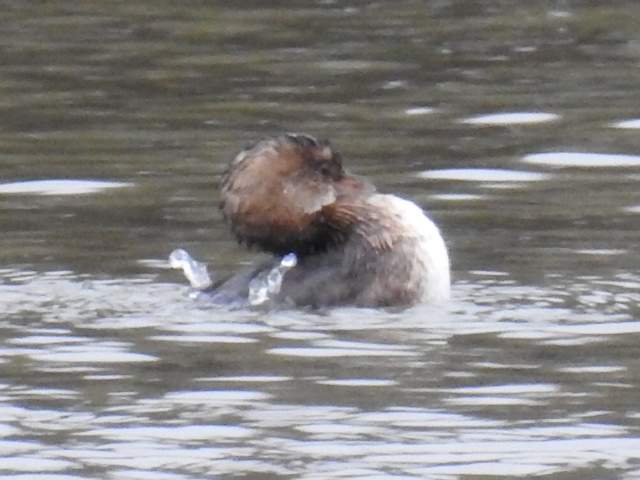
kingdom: Animalia
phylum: Chordata
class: Aves
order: Podicipediformes
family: Podicipedidae
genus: Podilymbus
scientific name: Podilymbus podiceps
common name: Pied-billed grebe
